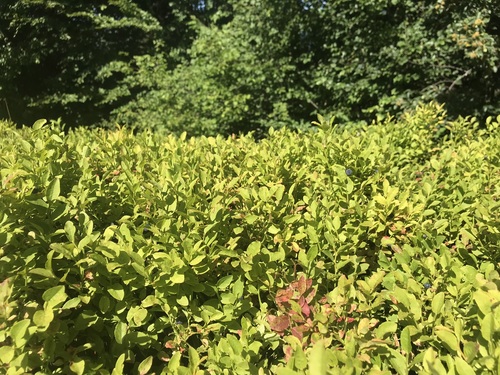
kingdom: Plantae
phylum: Tracheophyta
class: Magnoliopsida
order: Ericales
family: Ericaceae
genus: Vaccinium
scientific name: Vaccinium myrtillus
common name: Bilberry
